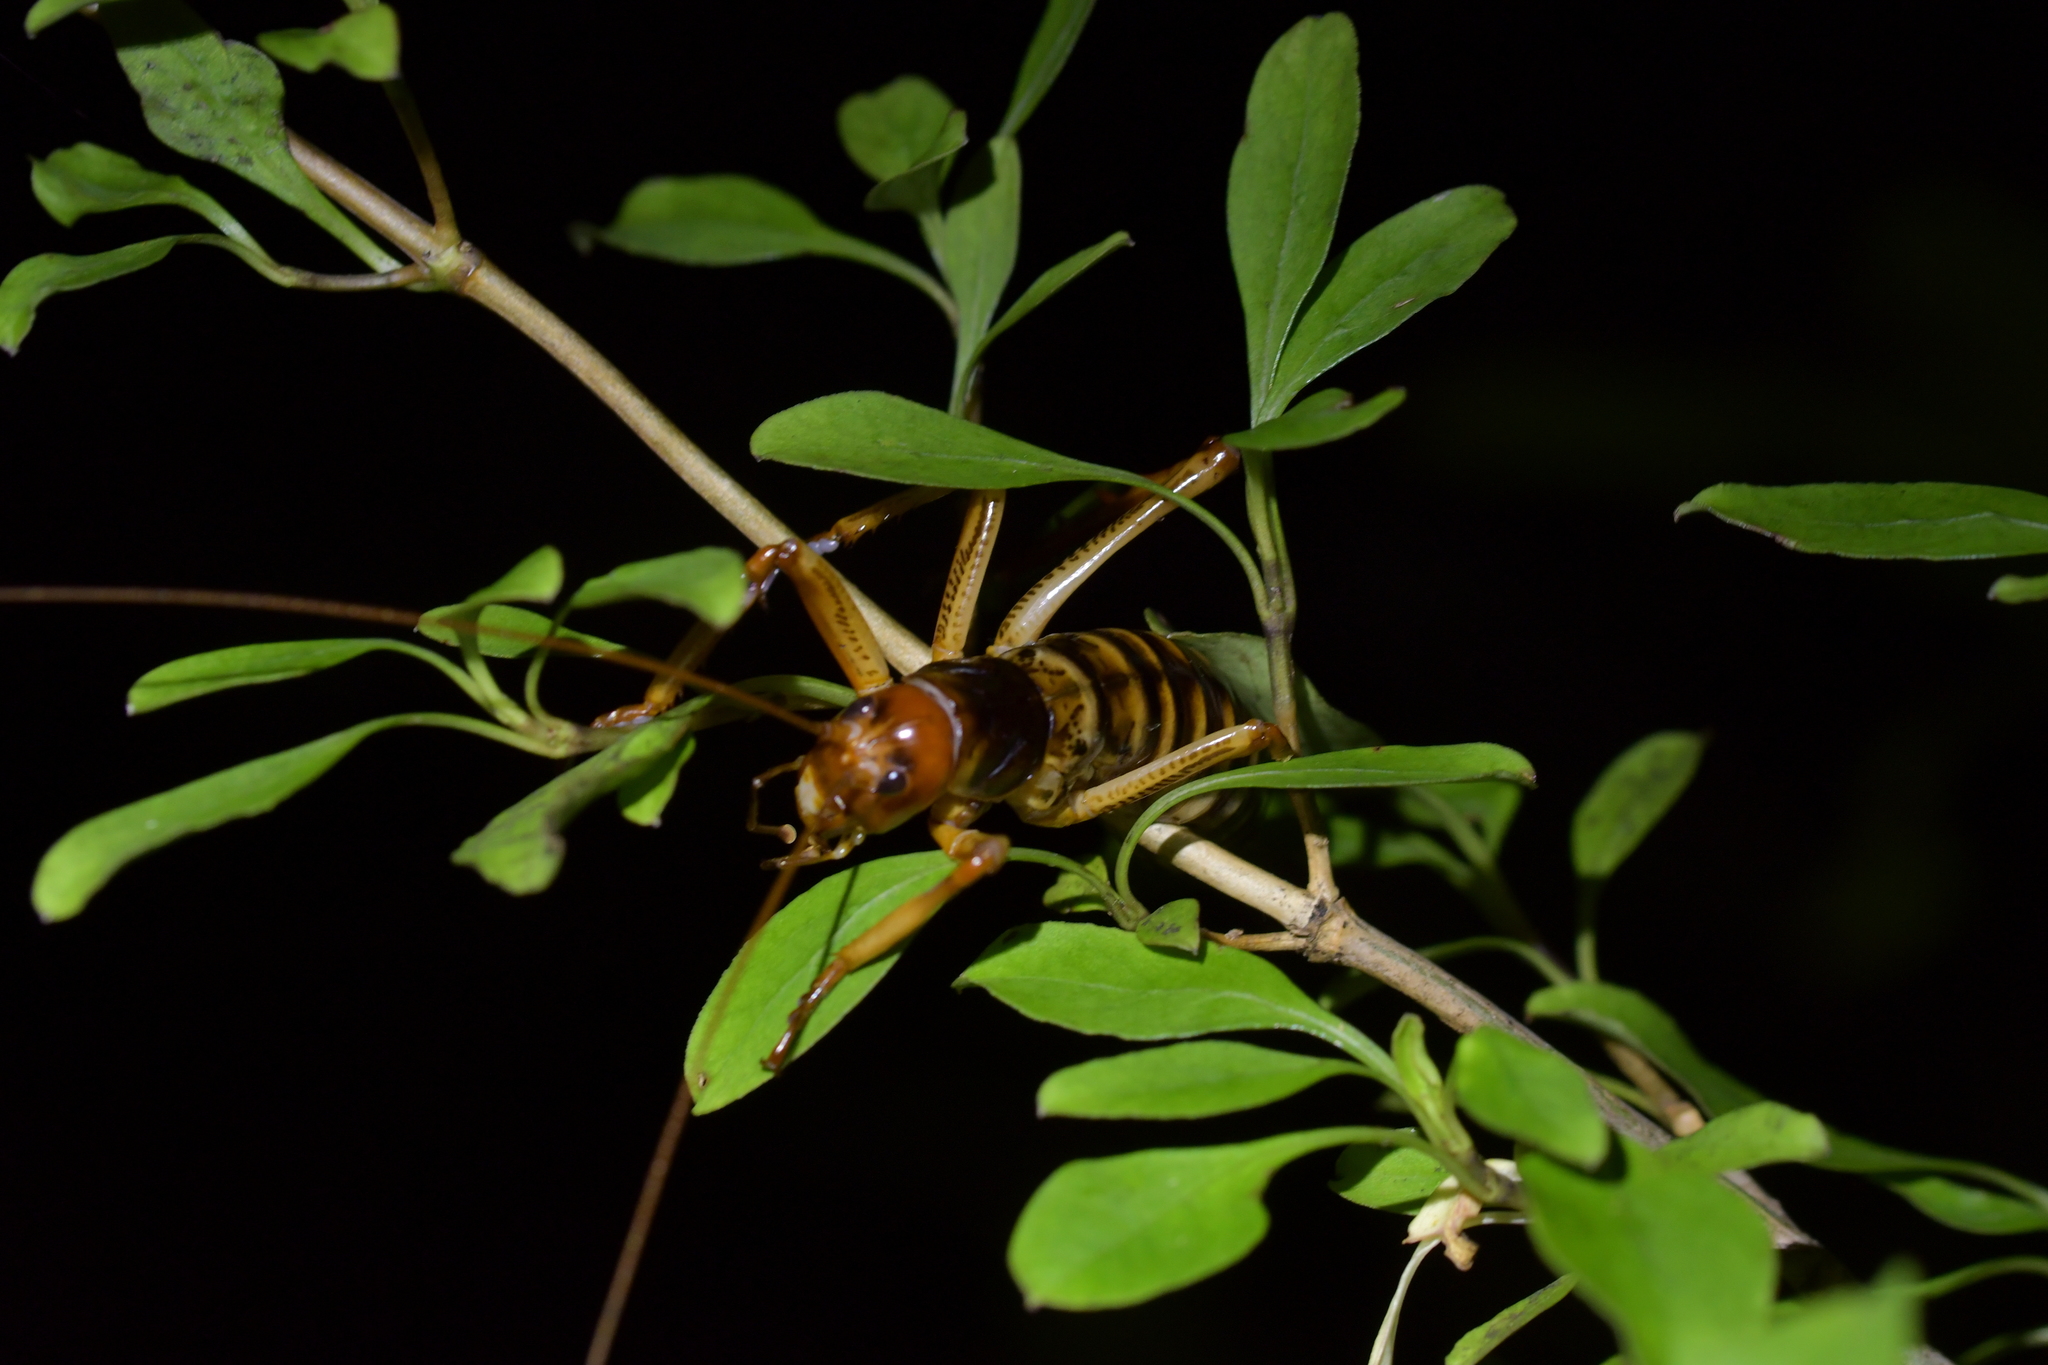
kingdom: Animalia
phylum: Arthropoda
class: Insecta
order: Orthoptera
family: Anostostomatidae
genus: Hemideina
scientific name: Hemideina crassidens
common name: Wellington tree weta
